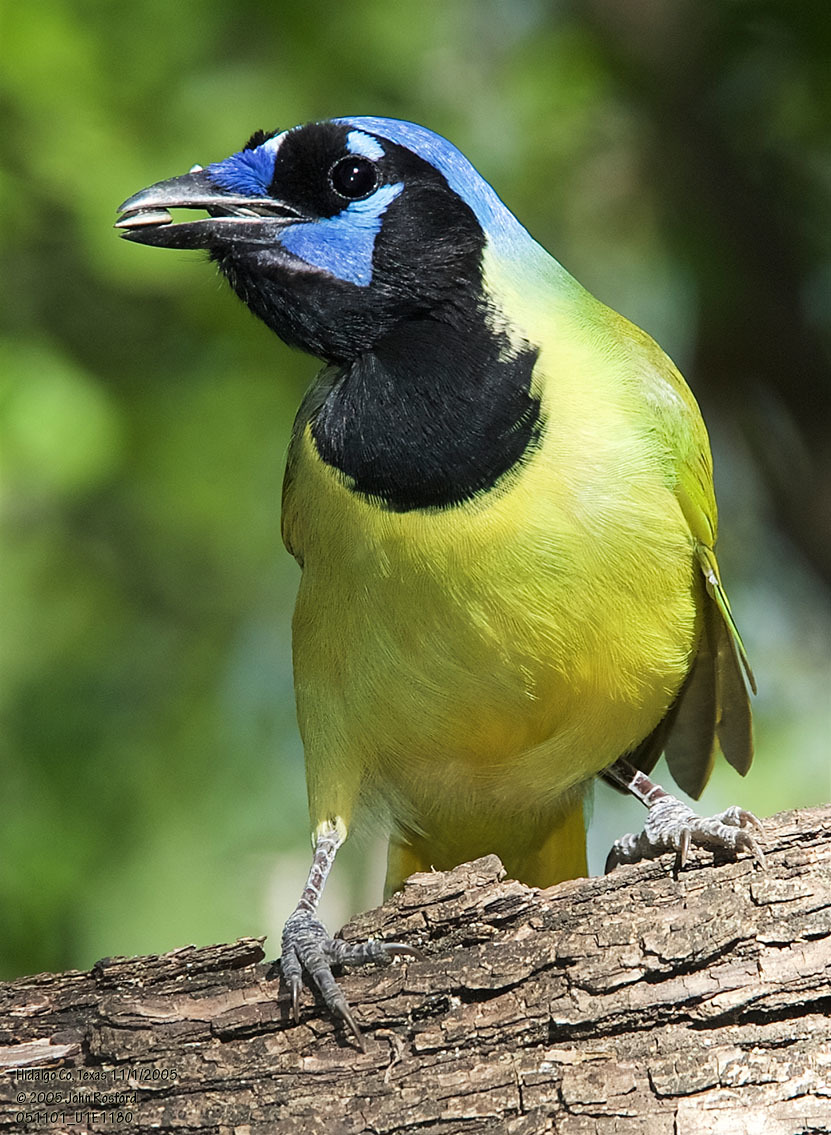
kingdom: Animalia
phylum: Chordata
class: Aves
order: Passeriformes
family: Corvidae
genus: Cyanocorax
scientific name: Cyanocorax yncas
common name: Green jay
